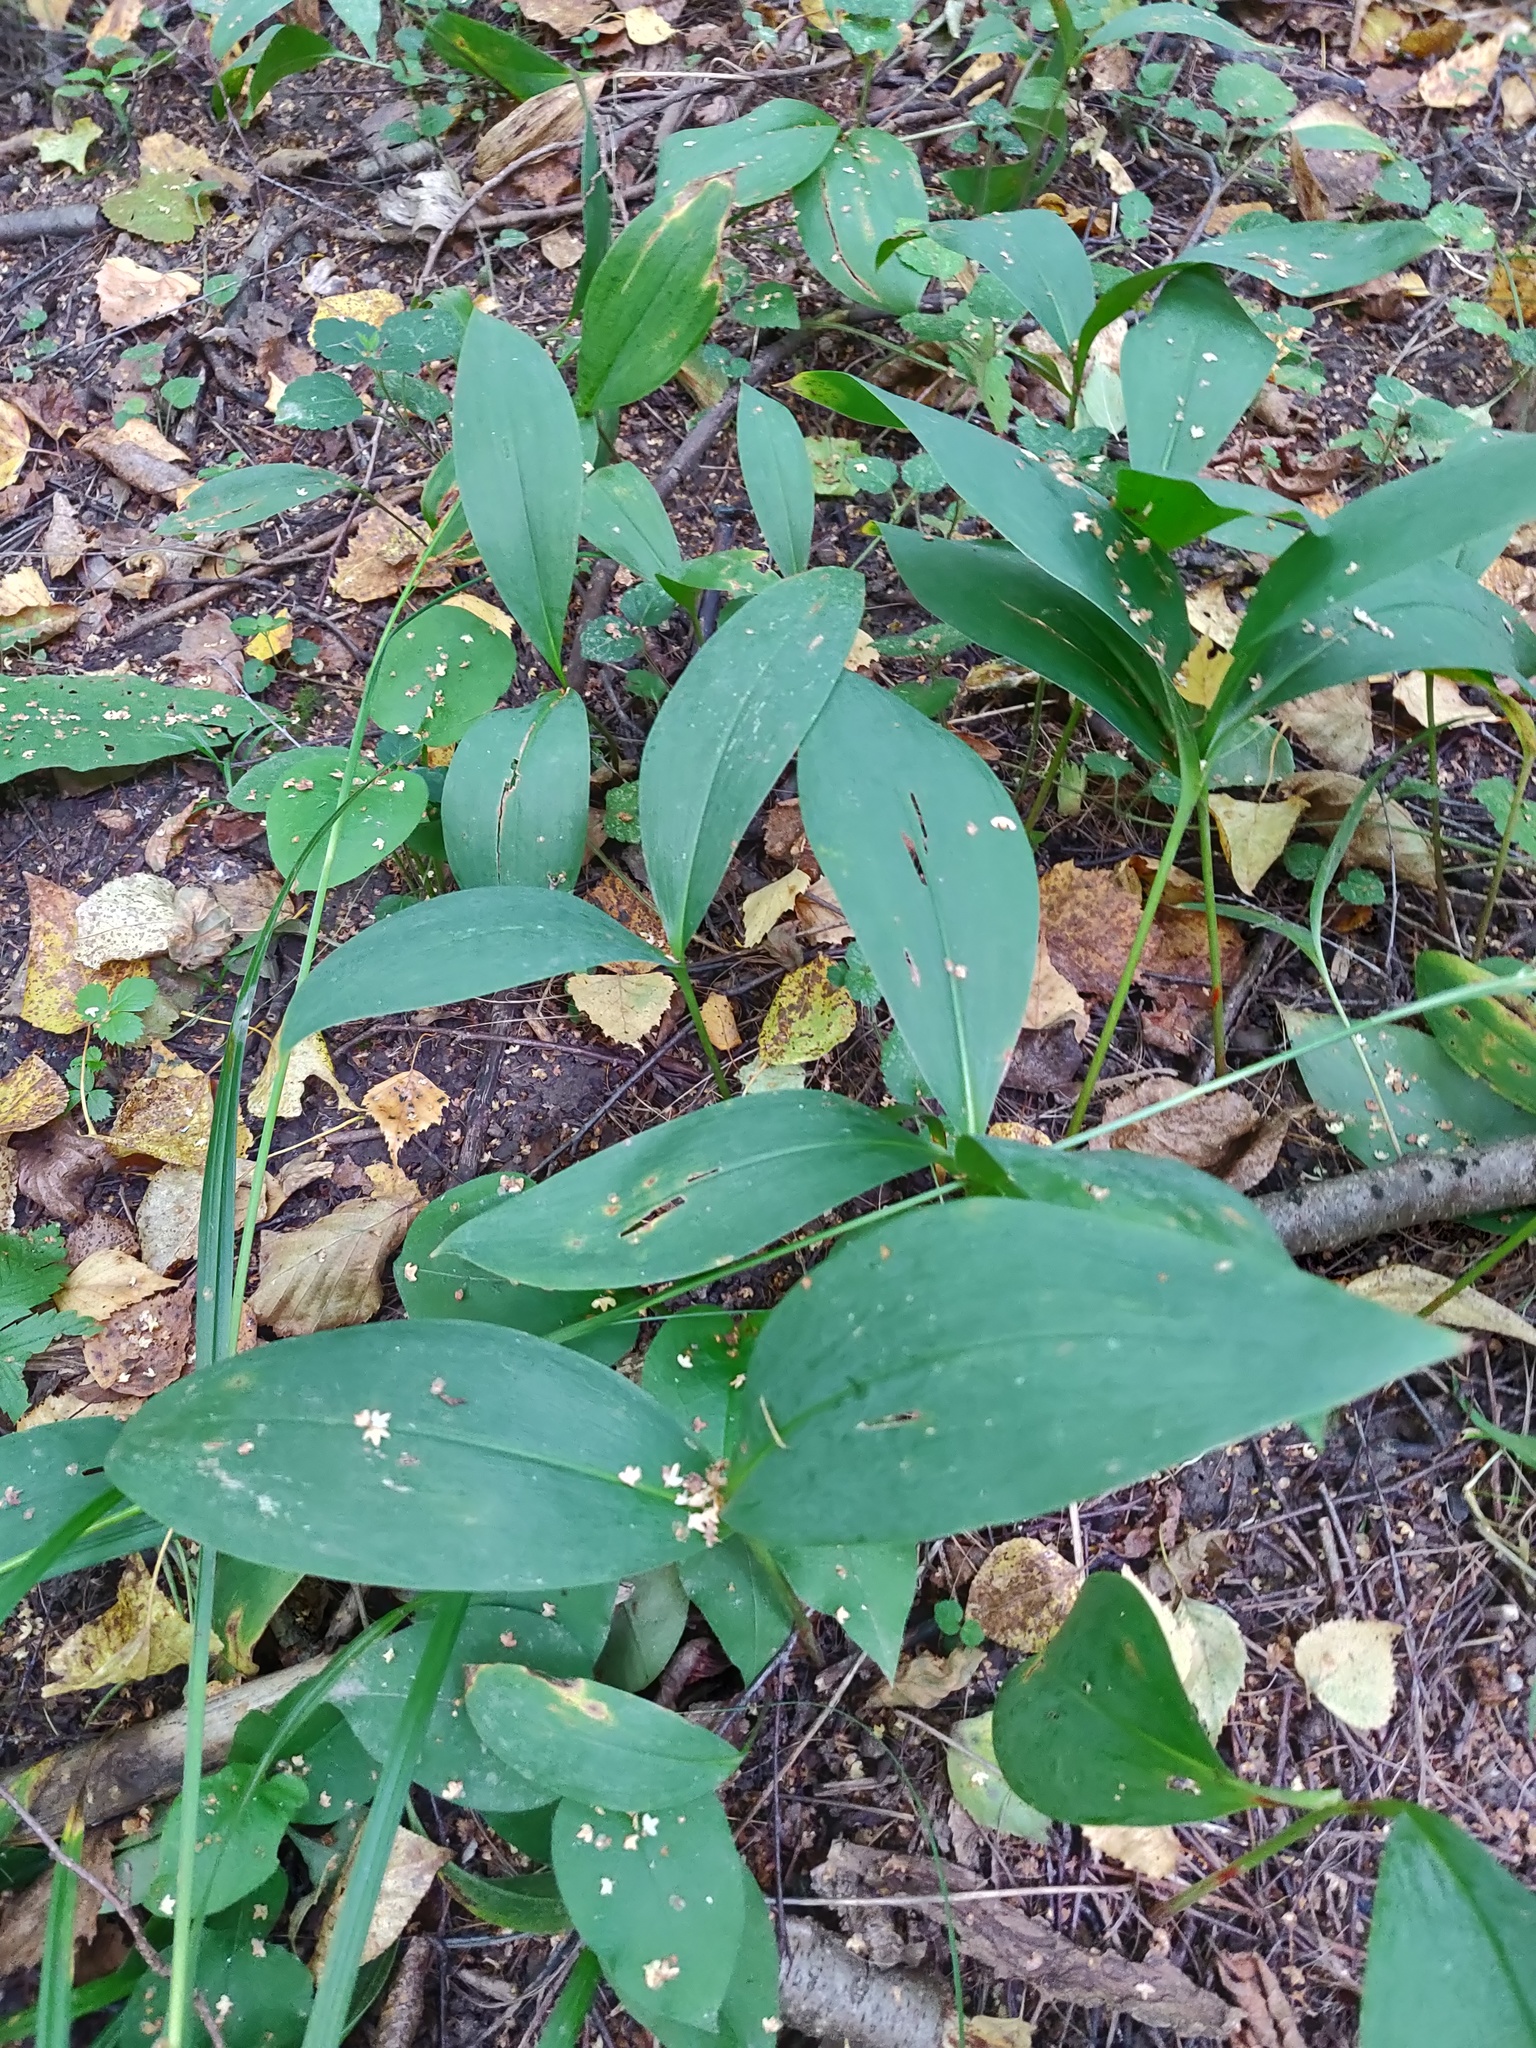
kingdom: Plantae
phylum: Tracheophyta
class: Liliopsida
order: Asparagales
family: Asparagaceae
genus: Convallaria
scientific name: Convallaria majalis
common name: Lily-of-the-valley
